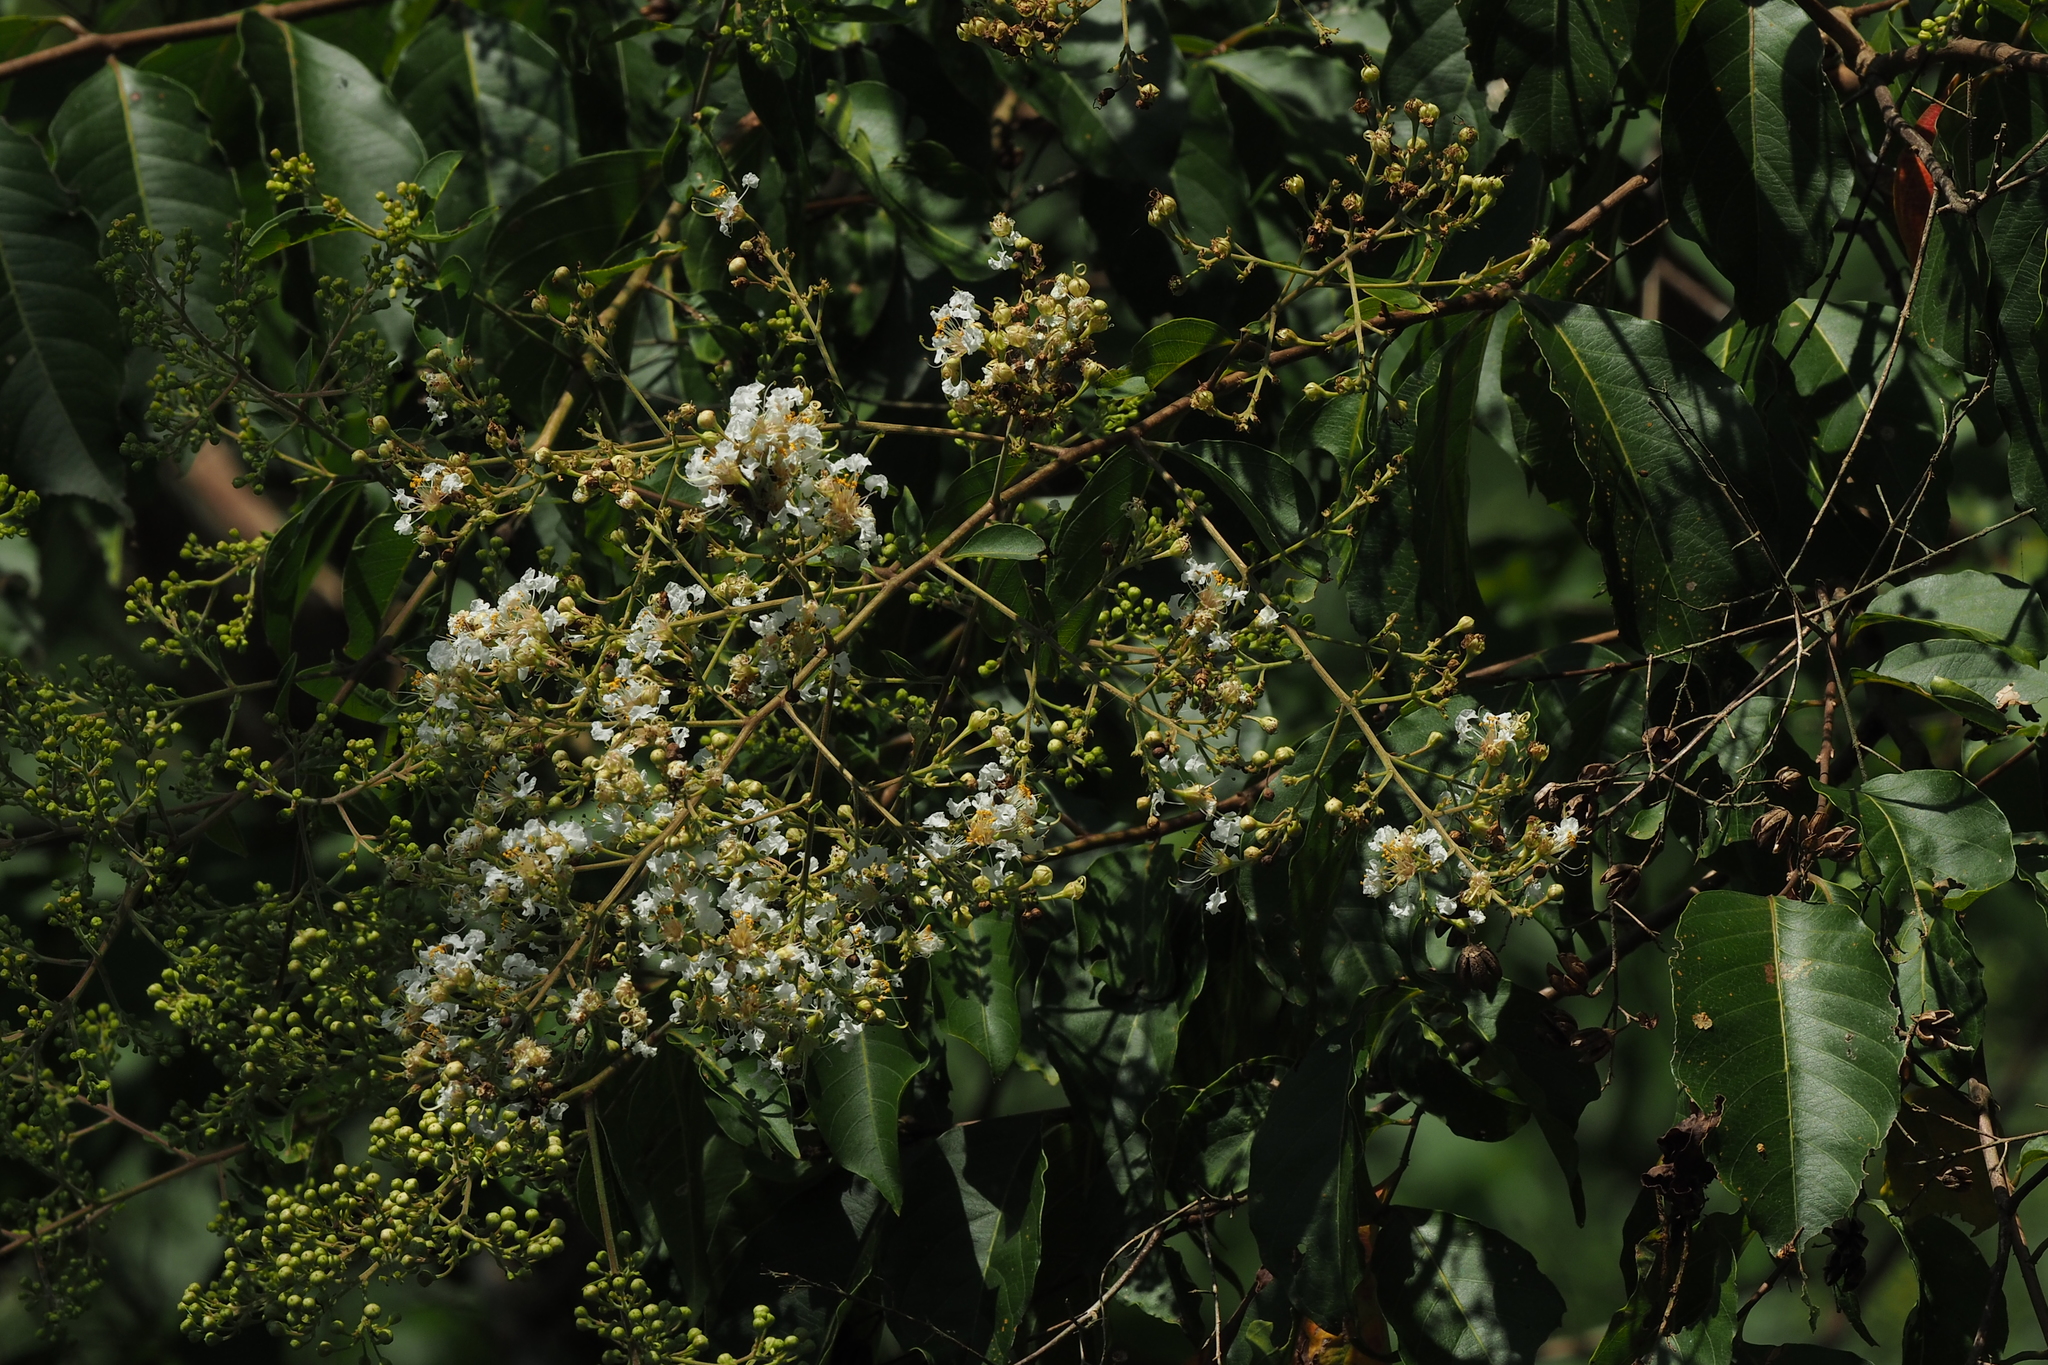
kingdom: Plantae
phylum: Tracheophyta
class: Magnoliopsida
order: Myrtales
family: Lythraceae
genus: Lagerstroemia
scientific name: Lagerstroemia subcostata
